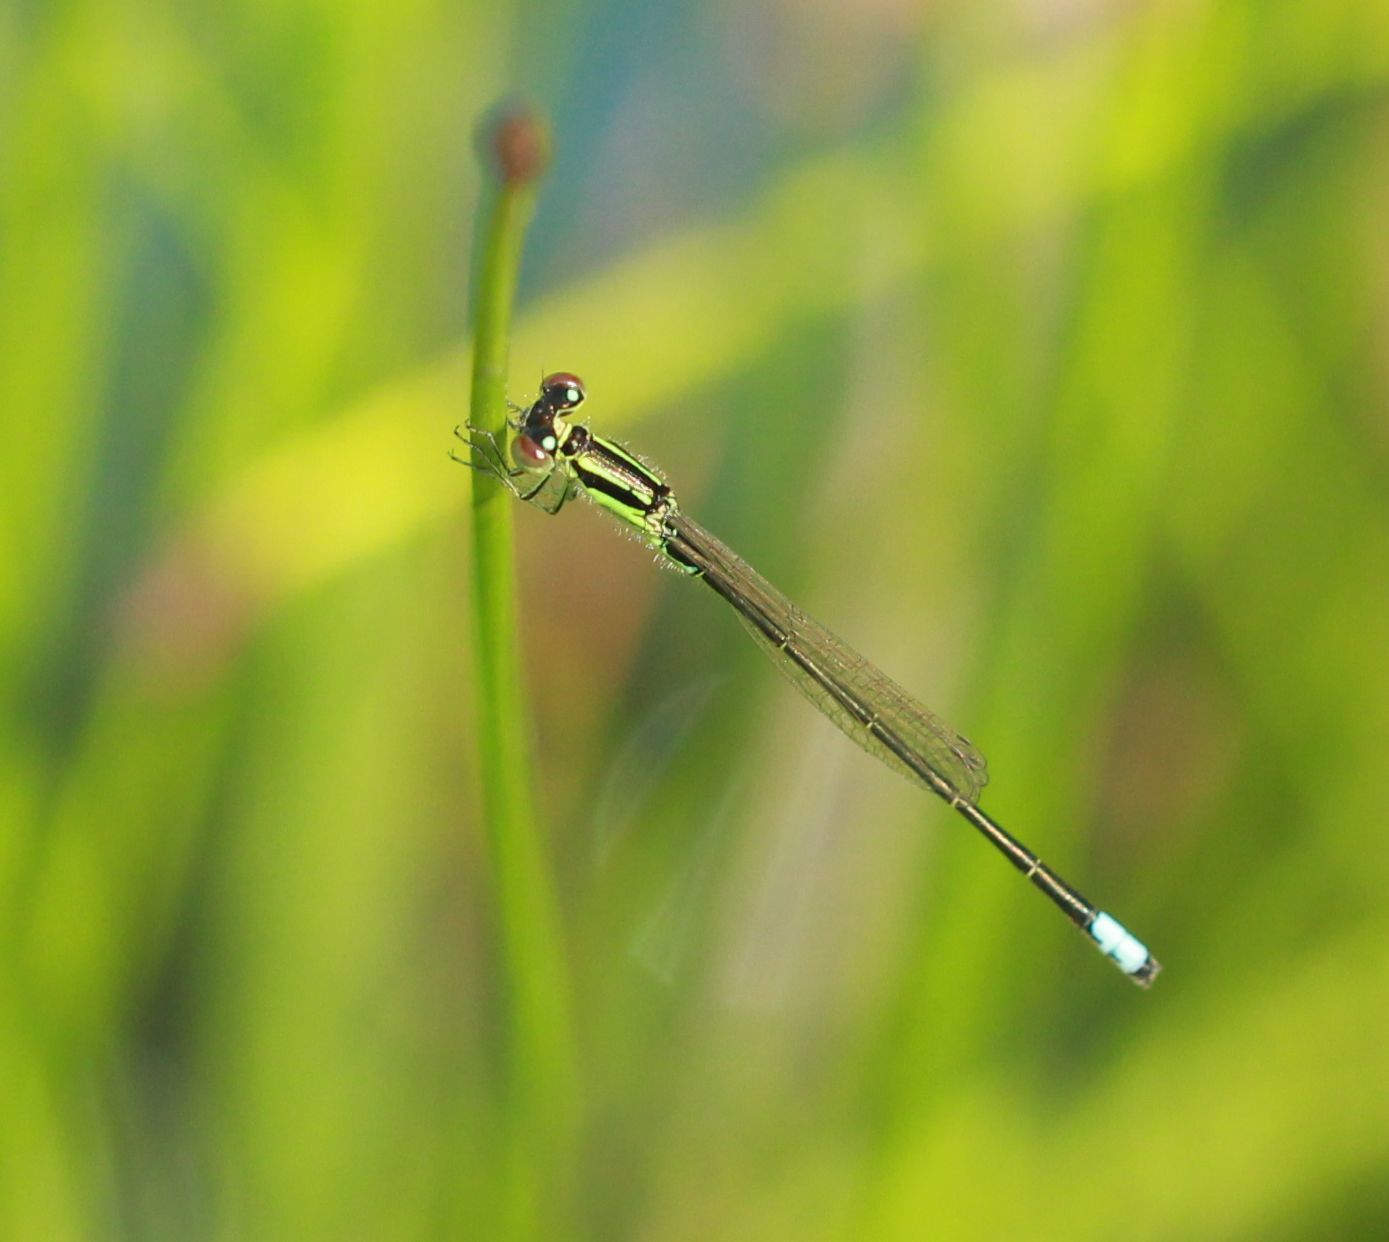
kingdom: Animalia
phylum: Arthropoda
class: Insecta
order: Odonata
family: Coenagrionidae
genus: Ischnura
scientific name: Ischnura verticalis
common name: Eastern forktail
